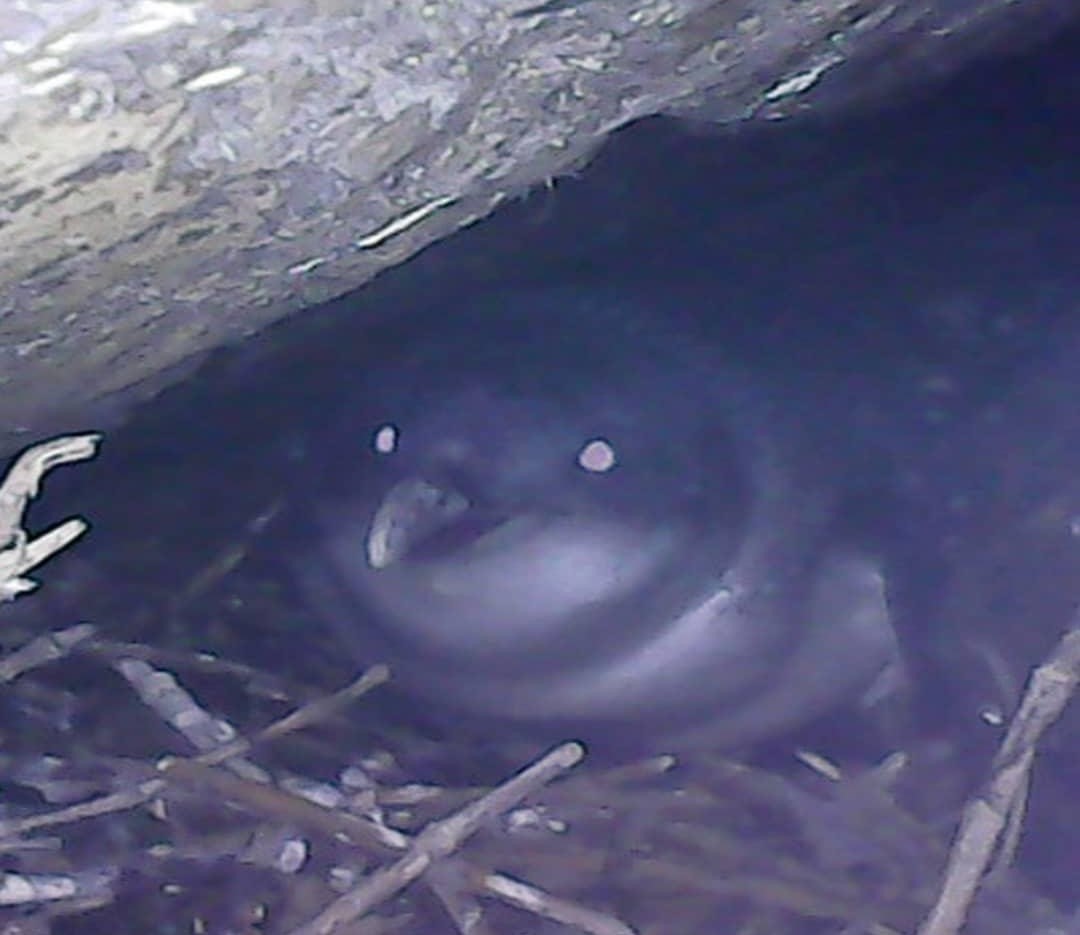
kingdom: Animalia
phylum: Chordata
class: Aves
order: Sphenisciformes
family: Spheniscidae
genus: Eudyptula
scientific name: Eudyptula minor
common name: Little penguin
